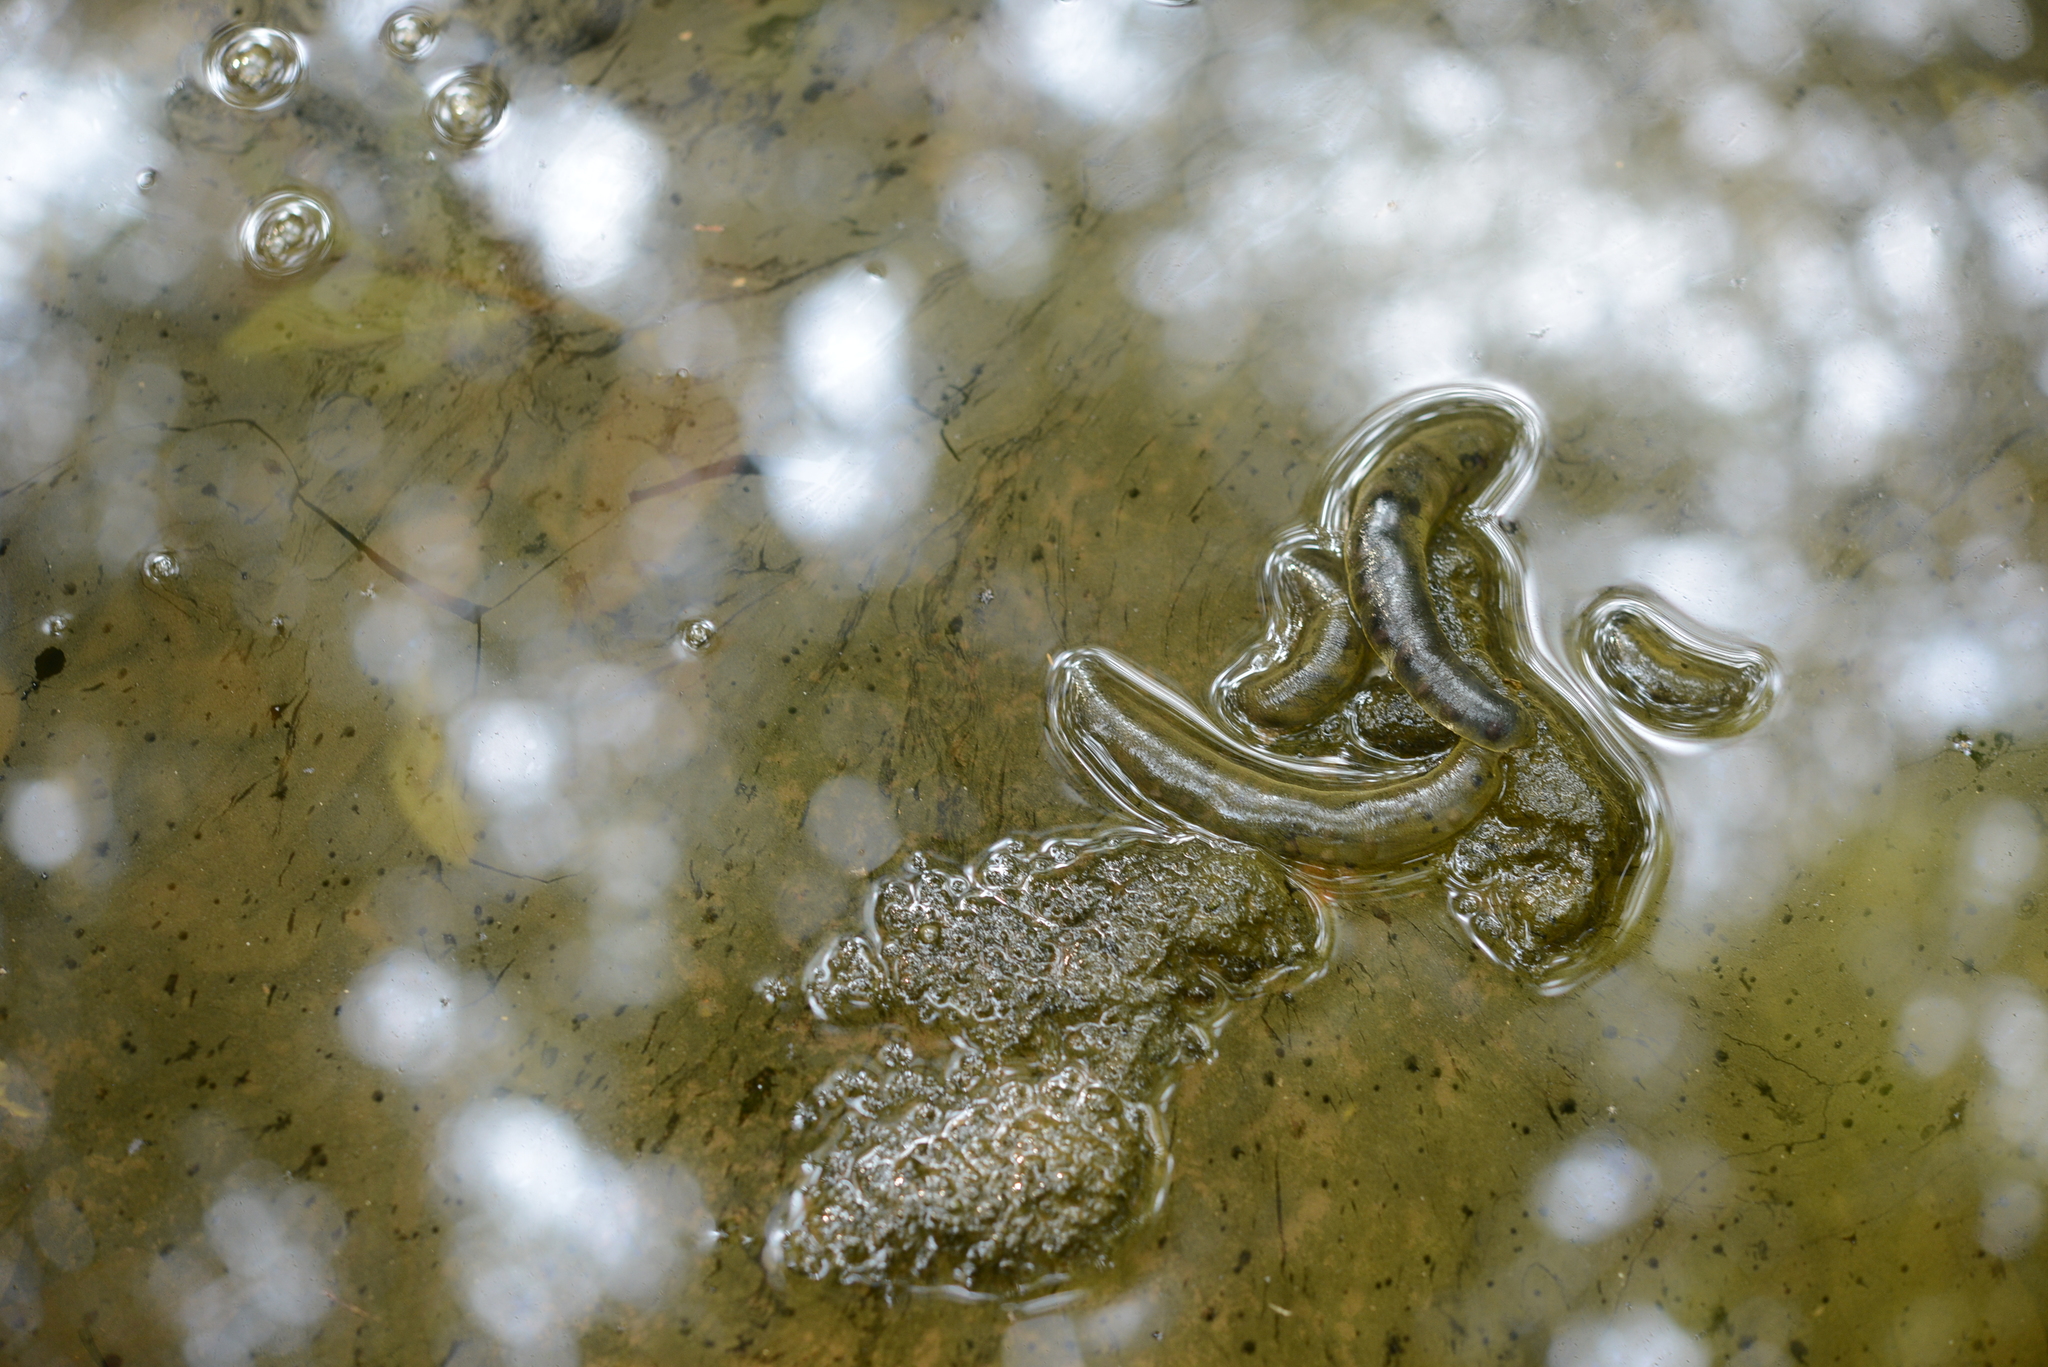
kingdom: Animalia
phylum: Chordata
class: Amphibia
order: Caudata
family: Hynobiidae
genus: Hynobius
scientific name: Hynobius quelpaertensis
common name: Cheju salamander
